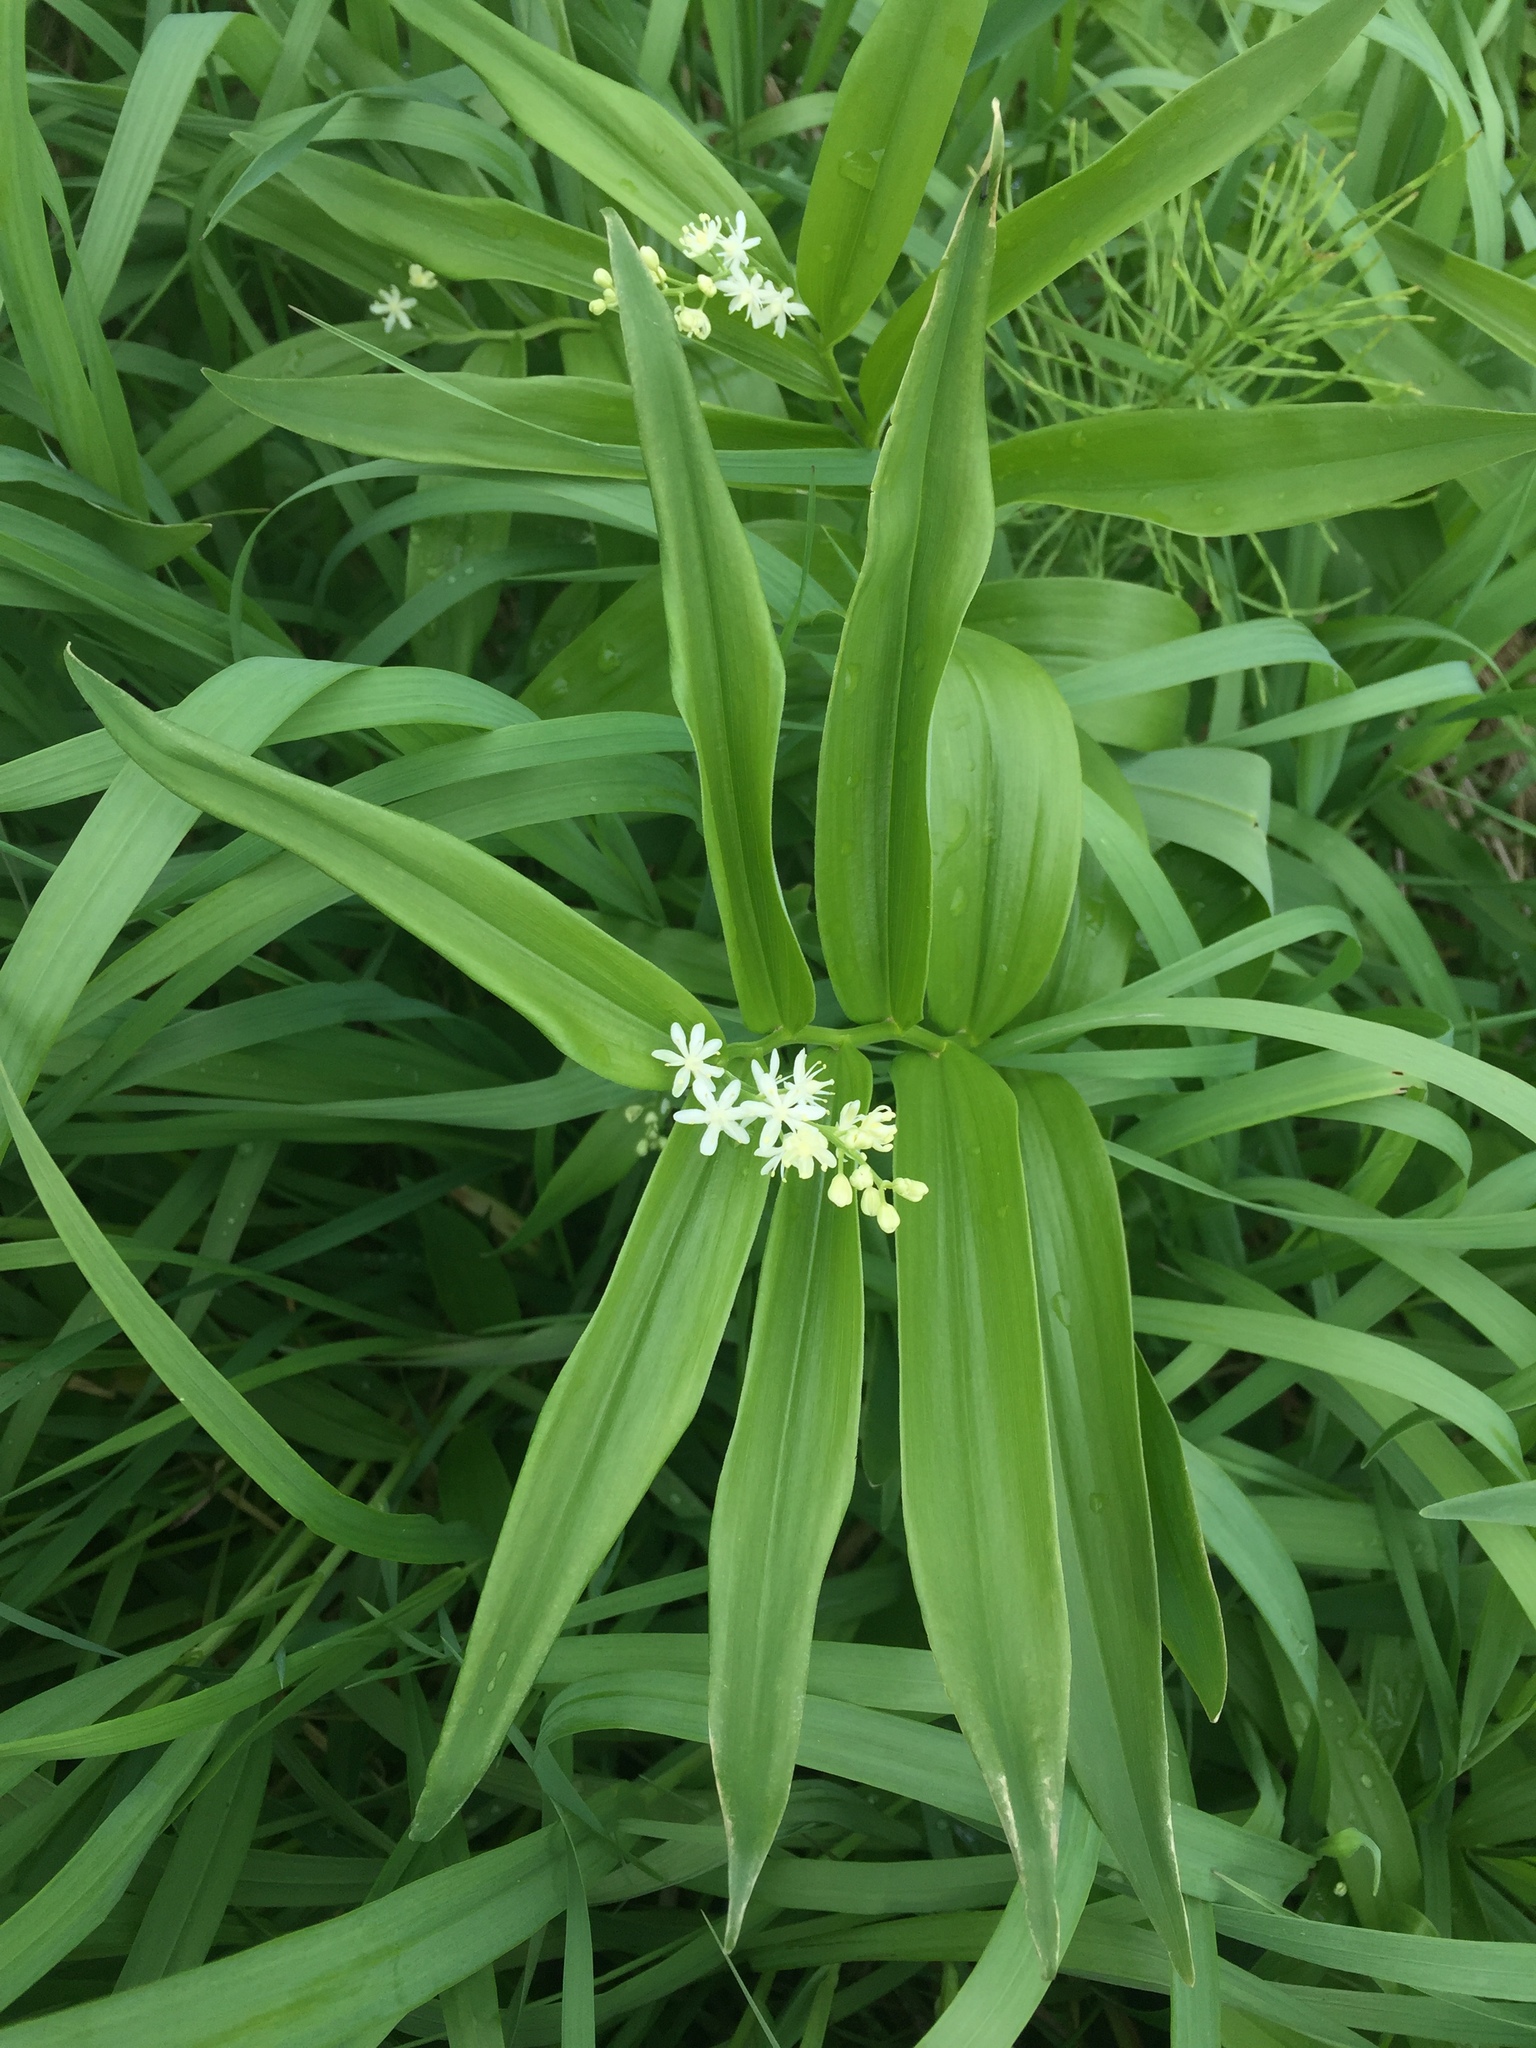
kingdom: Plantae
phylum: Tracheophyta
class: Liliopsida
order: Asparagales
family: Asparagaceae
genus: Maianthemum
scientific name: Maianthemum stellatum
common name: Little false solomon's seal
